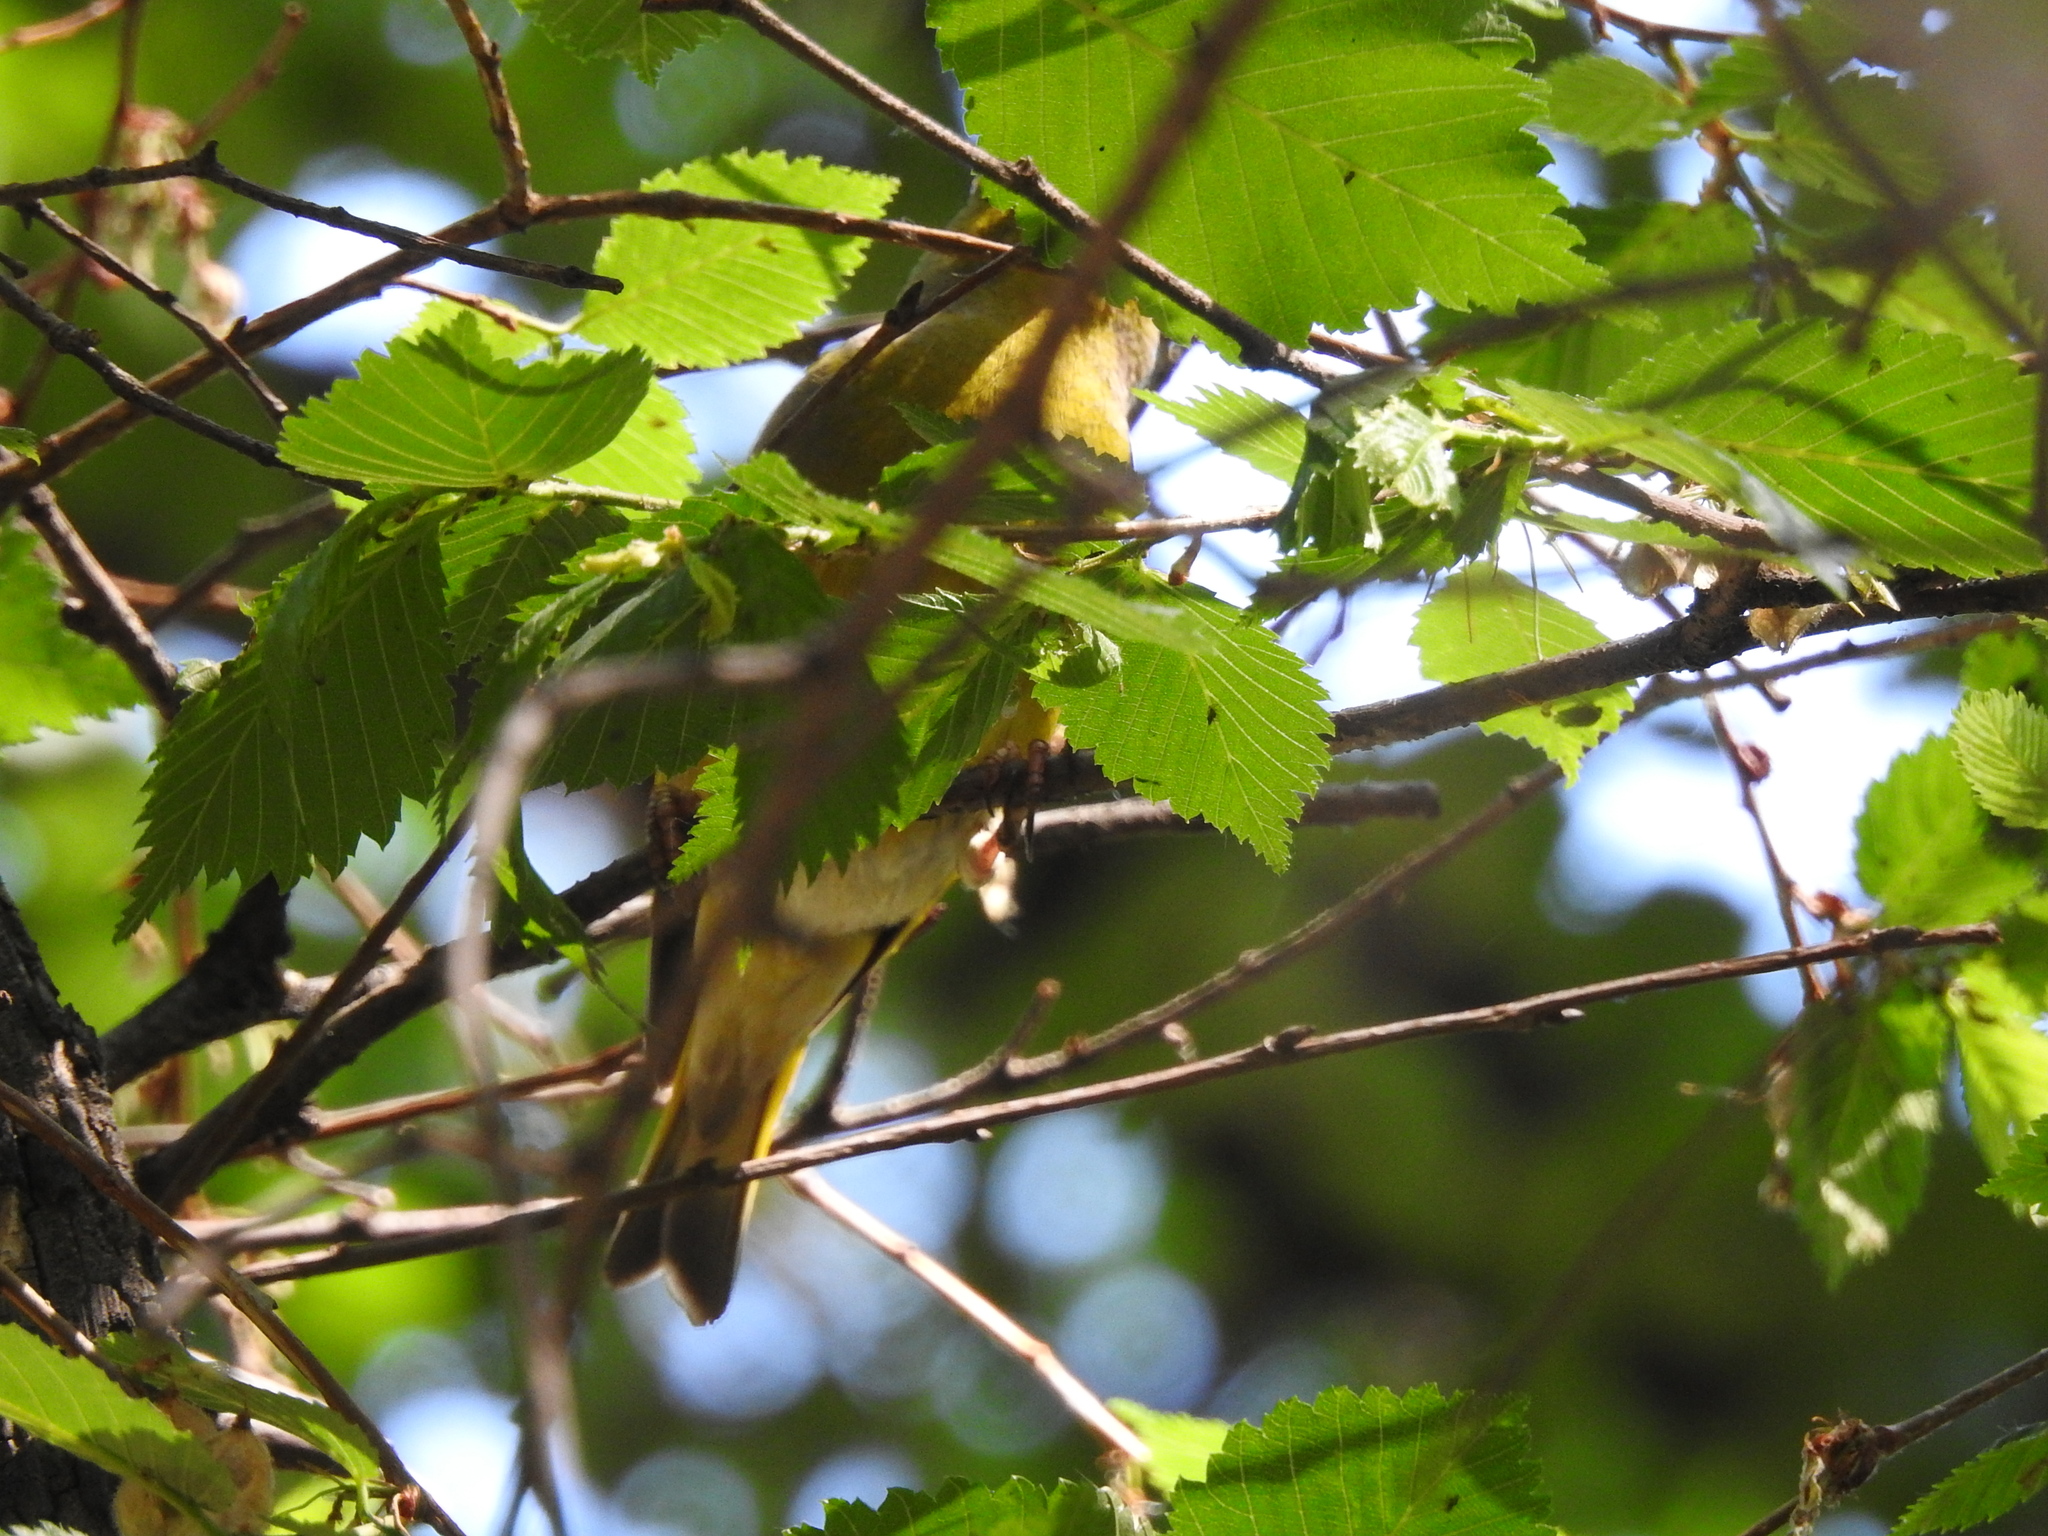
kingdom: Plantae
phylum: Tracheophyta
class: Liliopsida
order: Poales
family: Poaceae
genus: Chloris
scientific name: Chloris chloris
